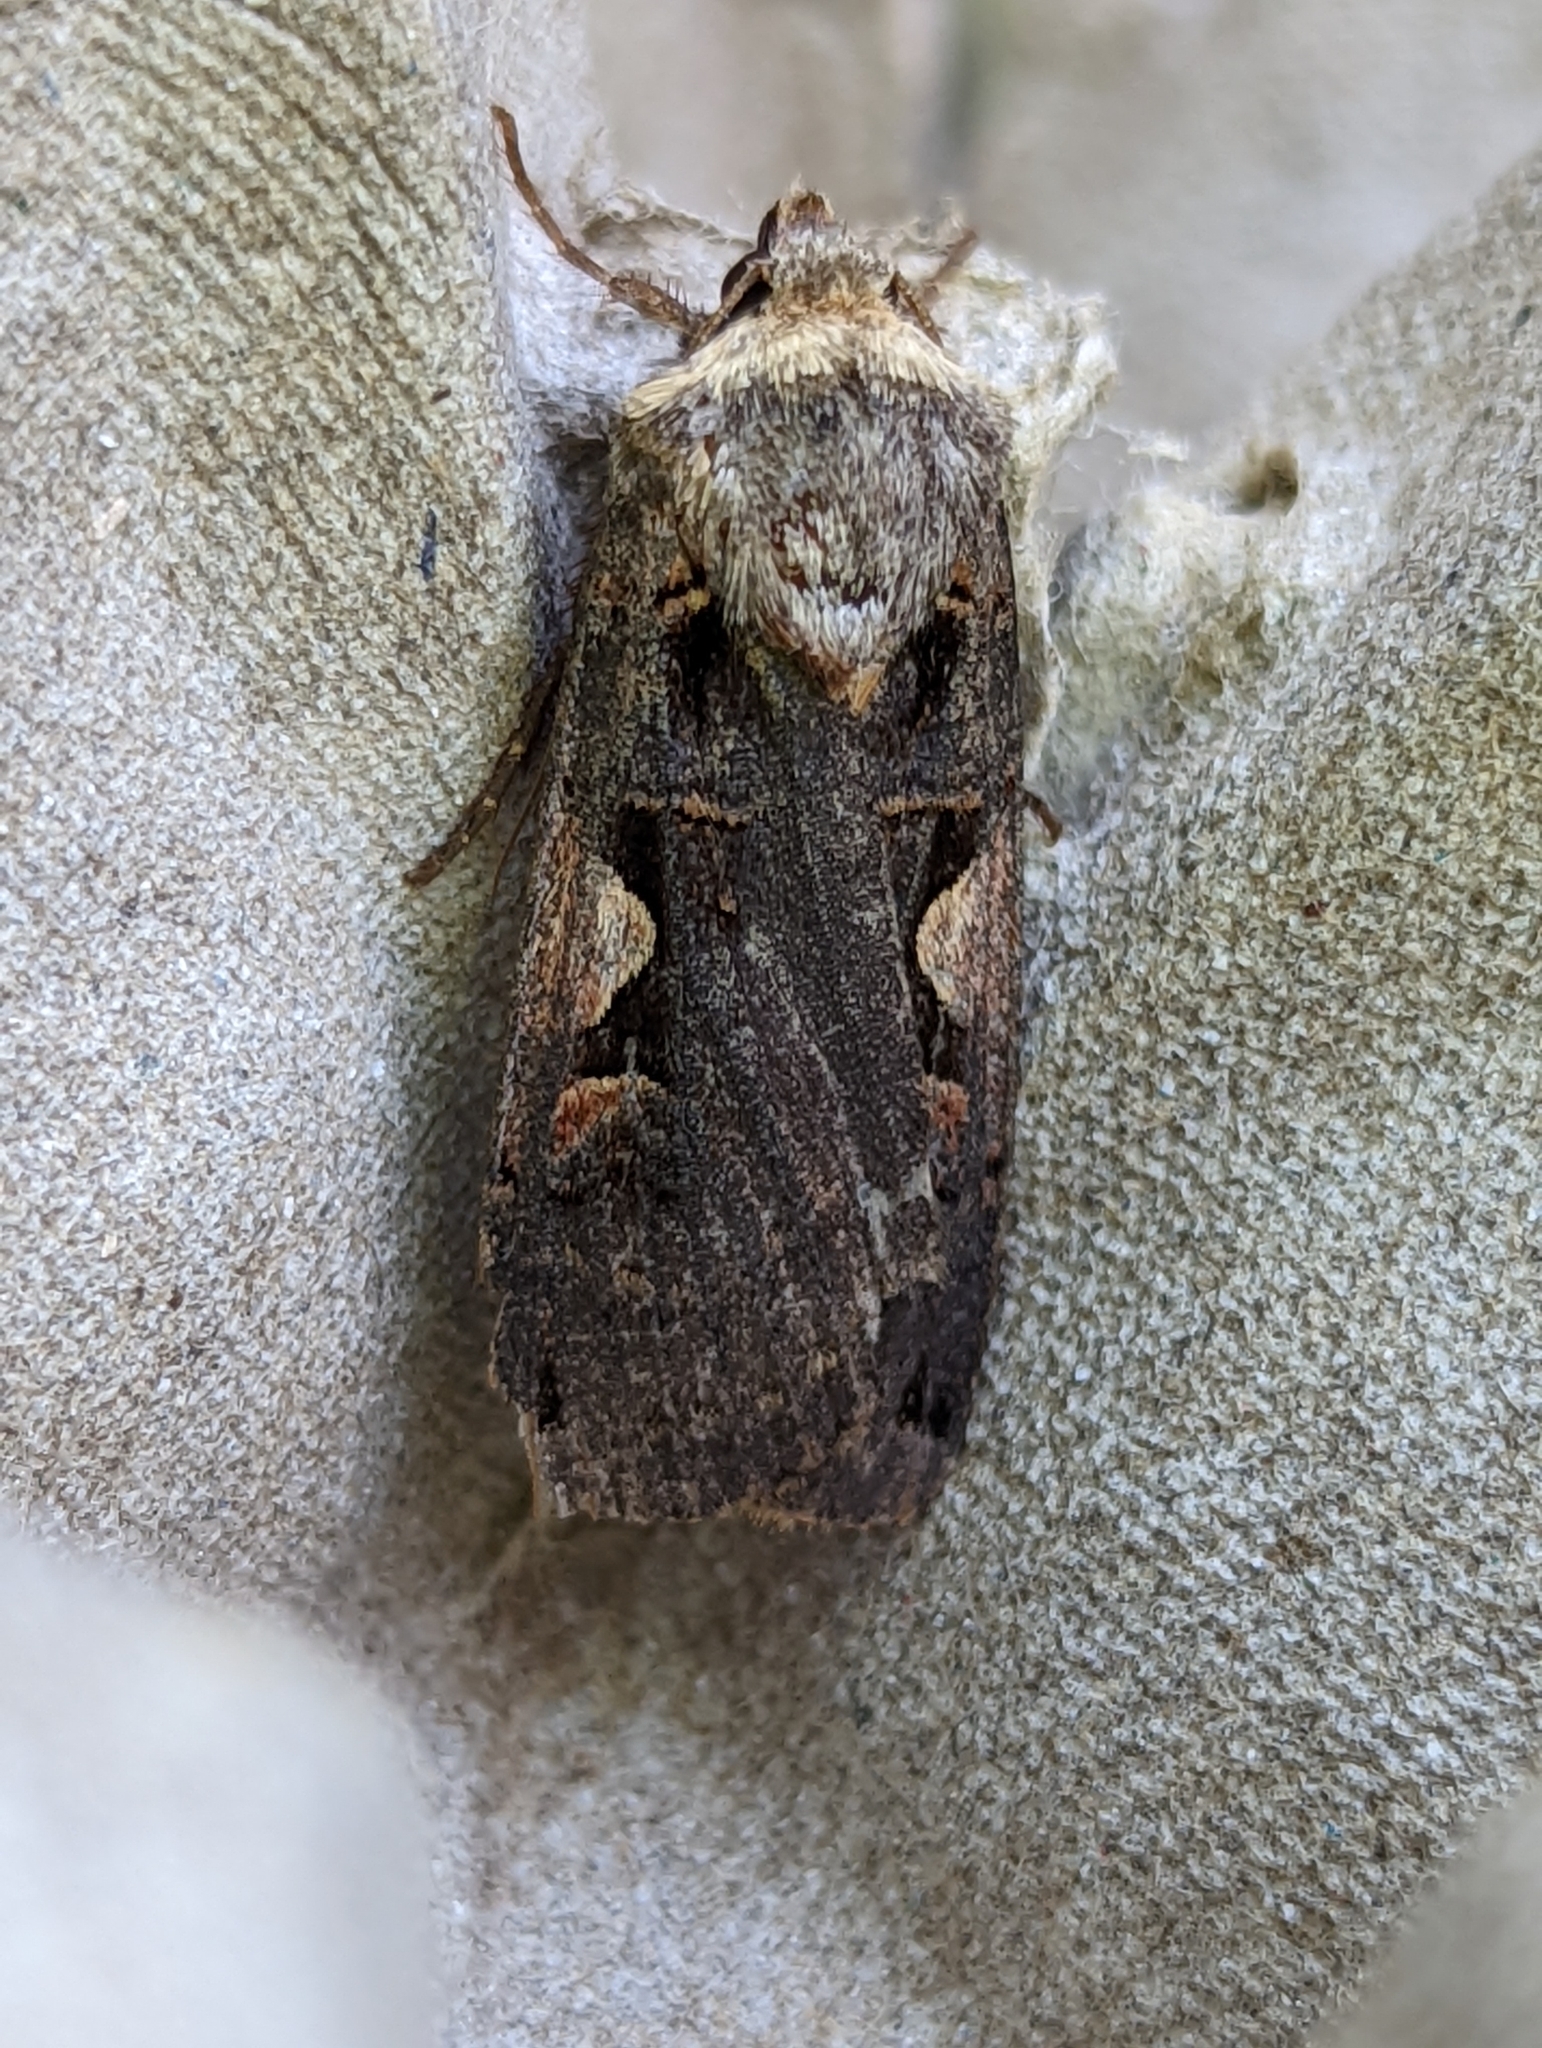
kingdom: Animalia
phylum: Arthropoda
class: Insecta
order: Lepidoptera
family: Noctuidae
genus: Xestia
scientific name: Xestia c-nigrum
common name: Setaceous hebrew character
